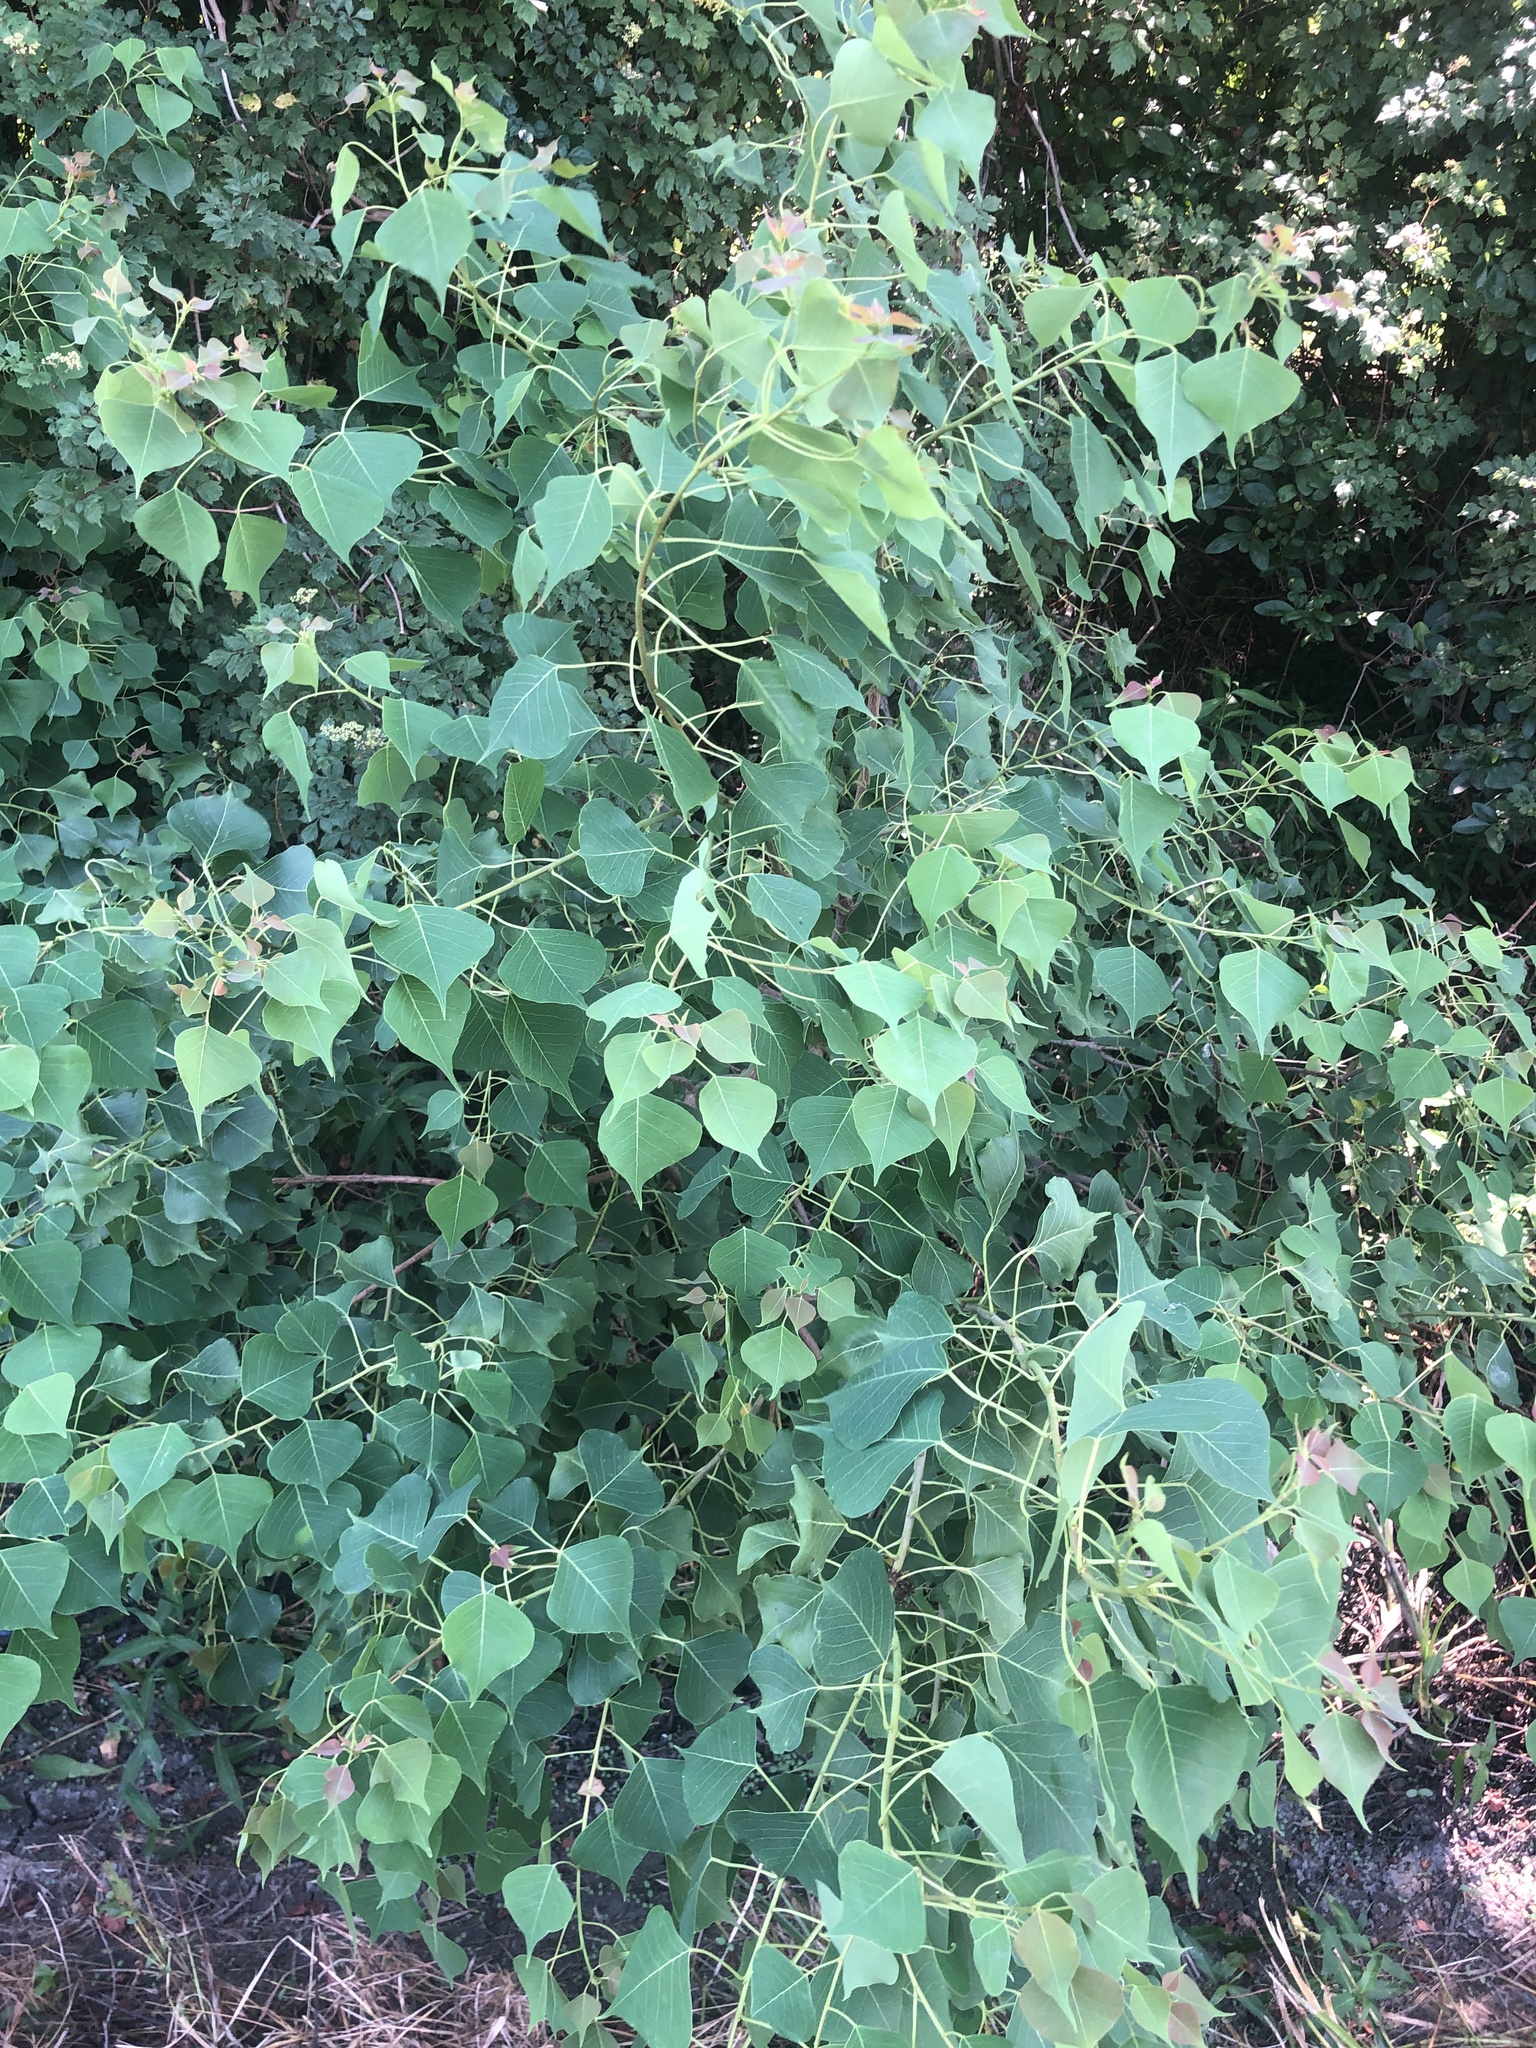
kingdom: Plantae
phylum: Tracheophyta
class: Magnoliopsida
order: Malpighiales
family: Euphorbiaceae
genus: Triadica
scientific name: Triadica sebifera
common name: Chinese tallow
